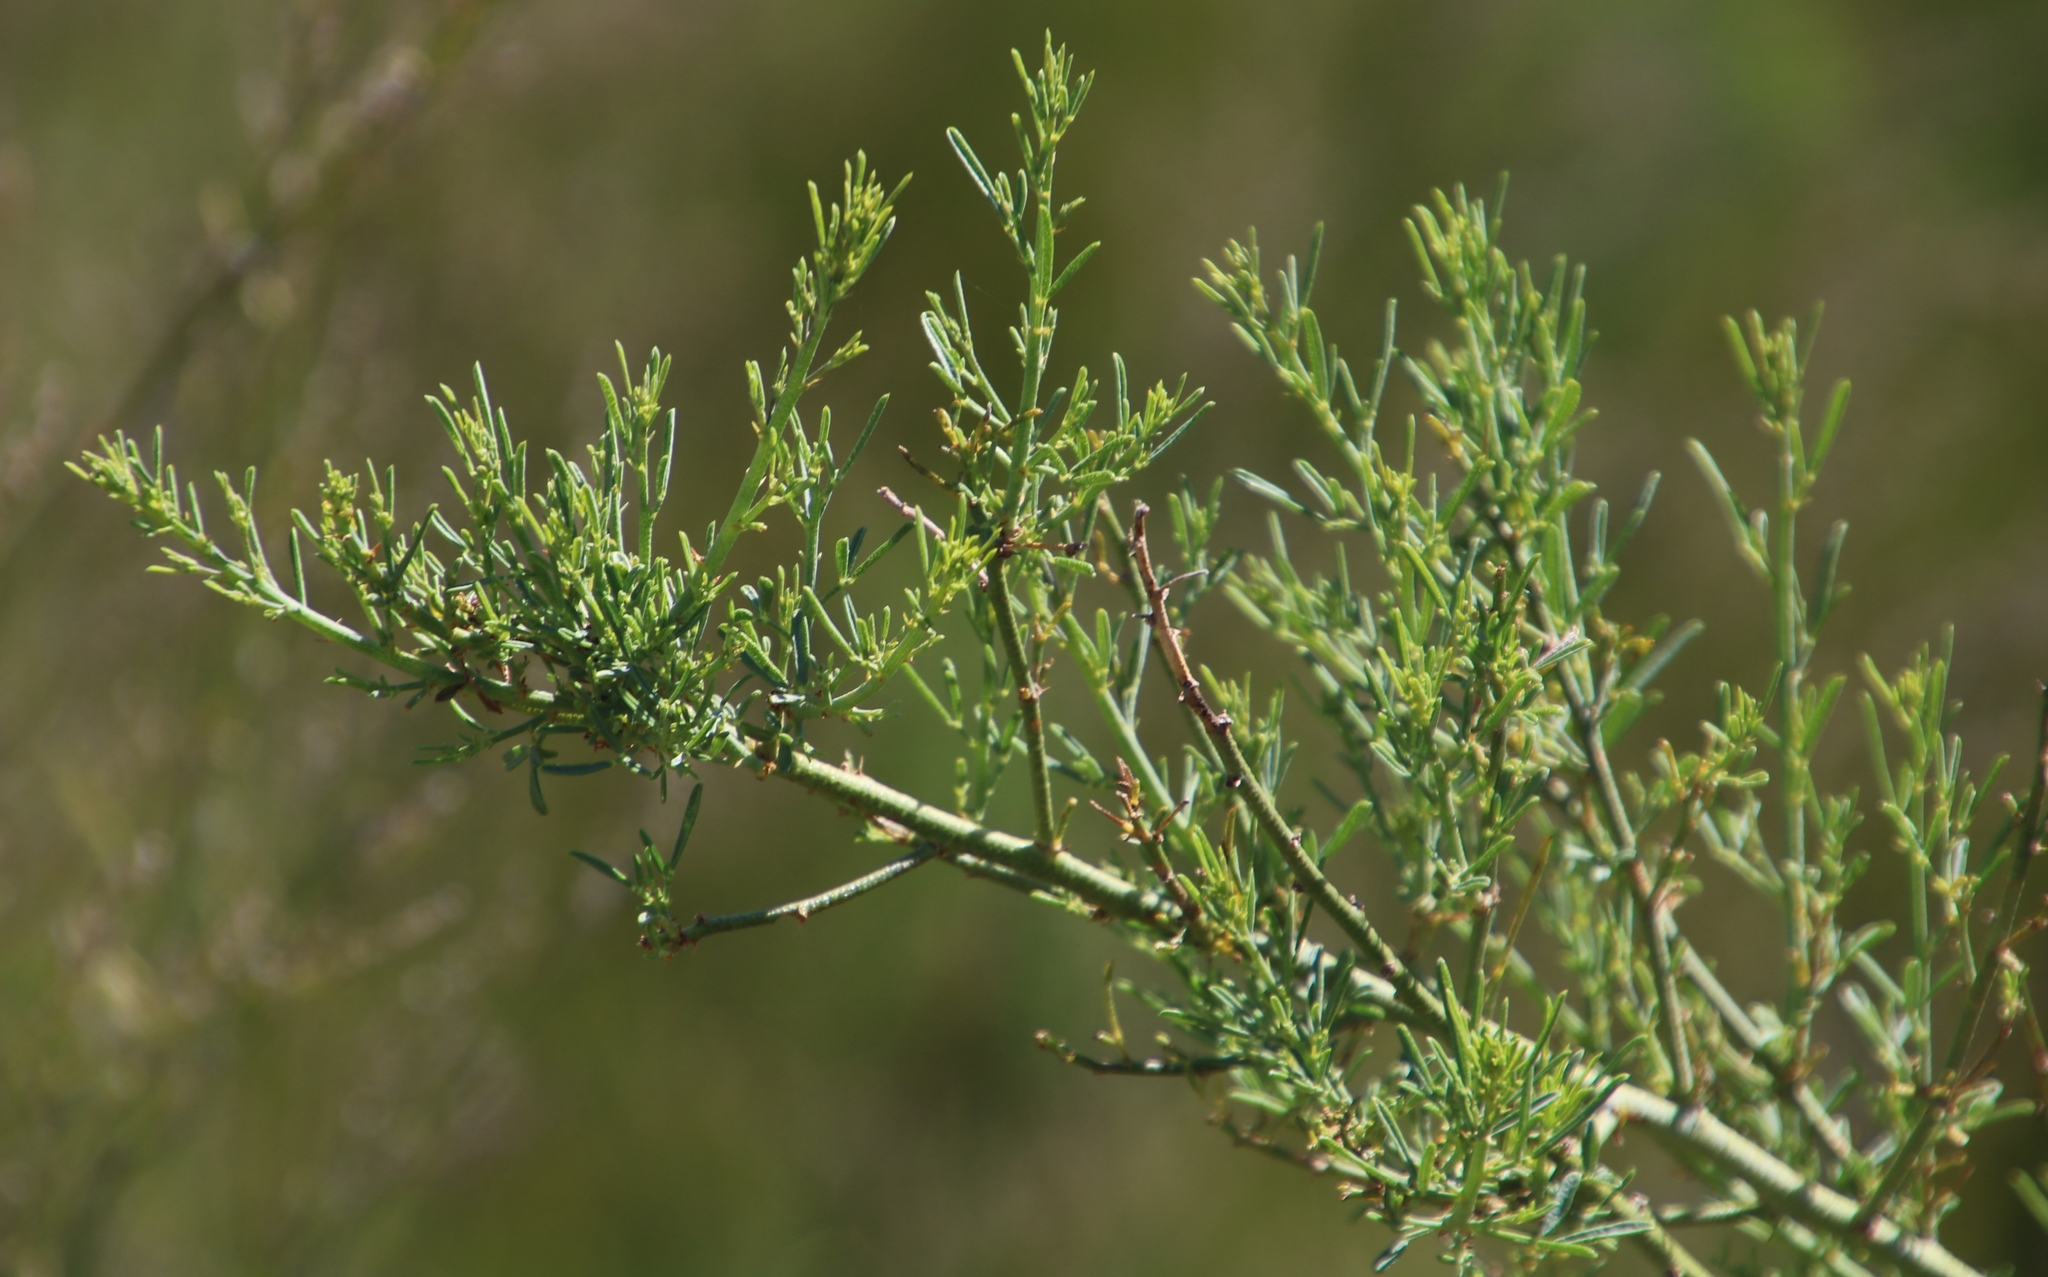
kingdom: Plantae
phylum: Tracheophyta
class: Magnoliopsida
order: Fabales
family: Fabaceae
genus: Psoralea
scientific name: Psoralea
